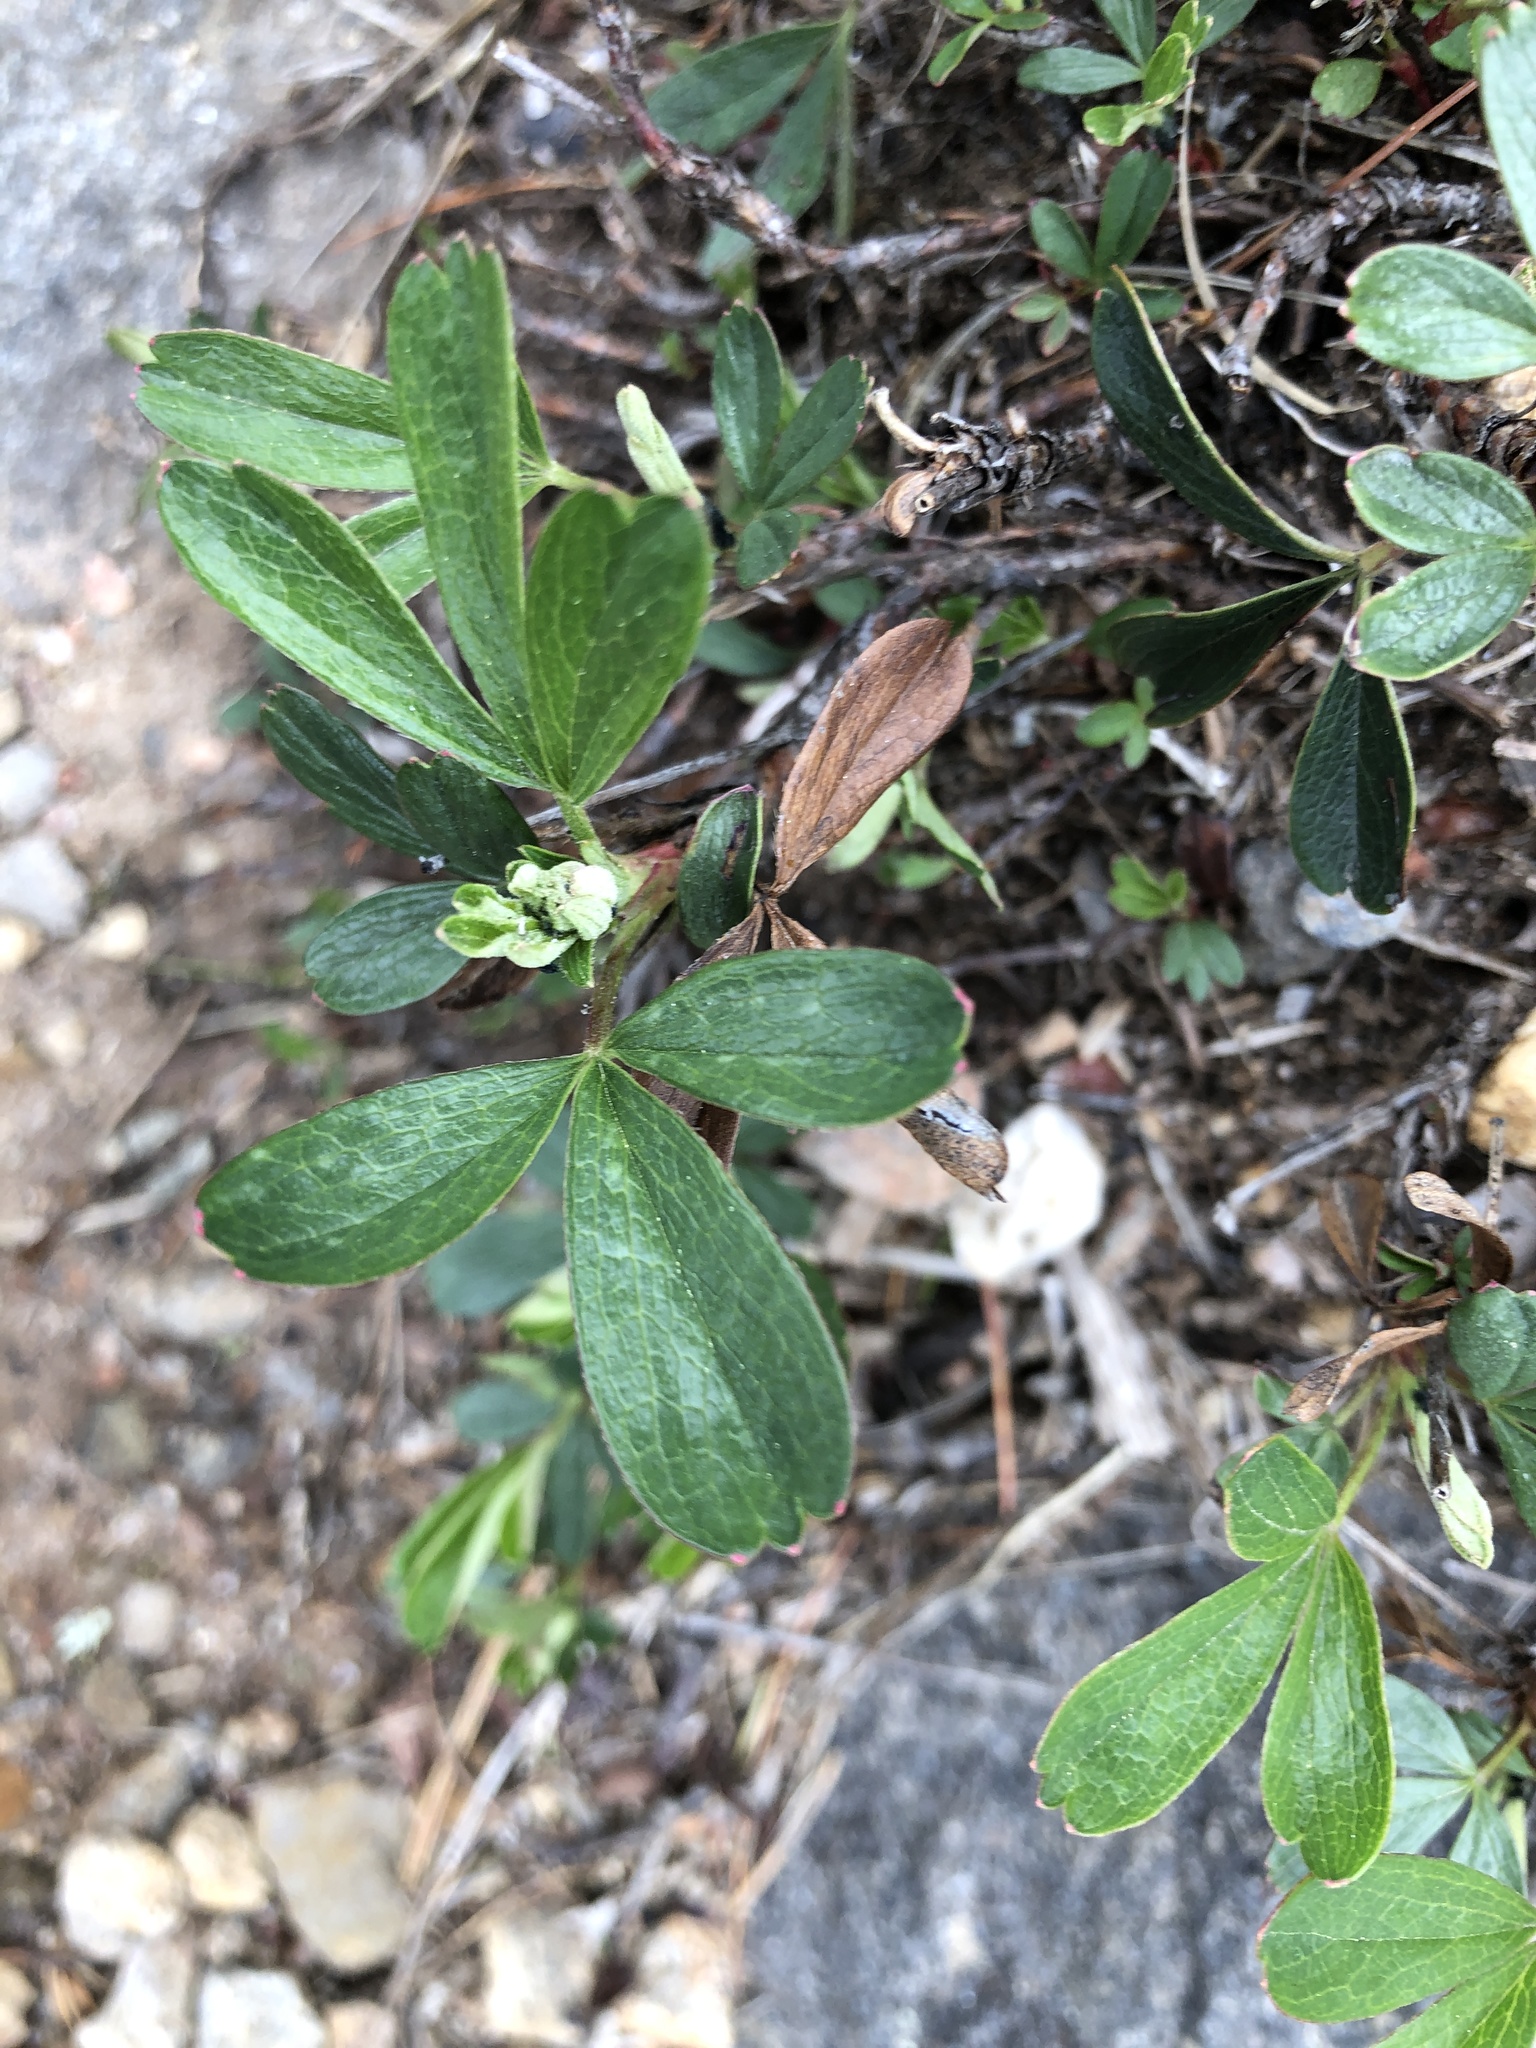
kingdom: Plantae
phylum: Tracheophyta
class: Magnoliopsida
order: Rosales
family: Rosaceae
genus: Sibbaldia
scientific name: Sibbaldia tridentata
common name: Three-toothed cinquefoil
